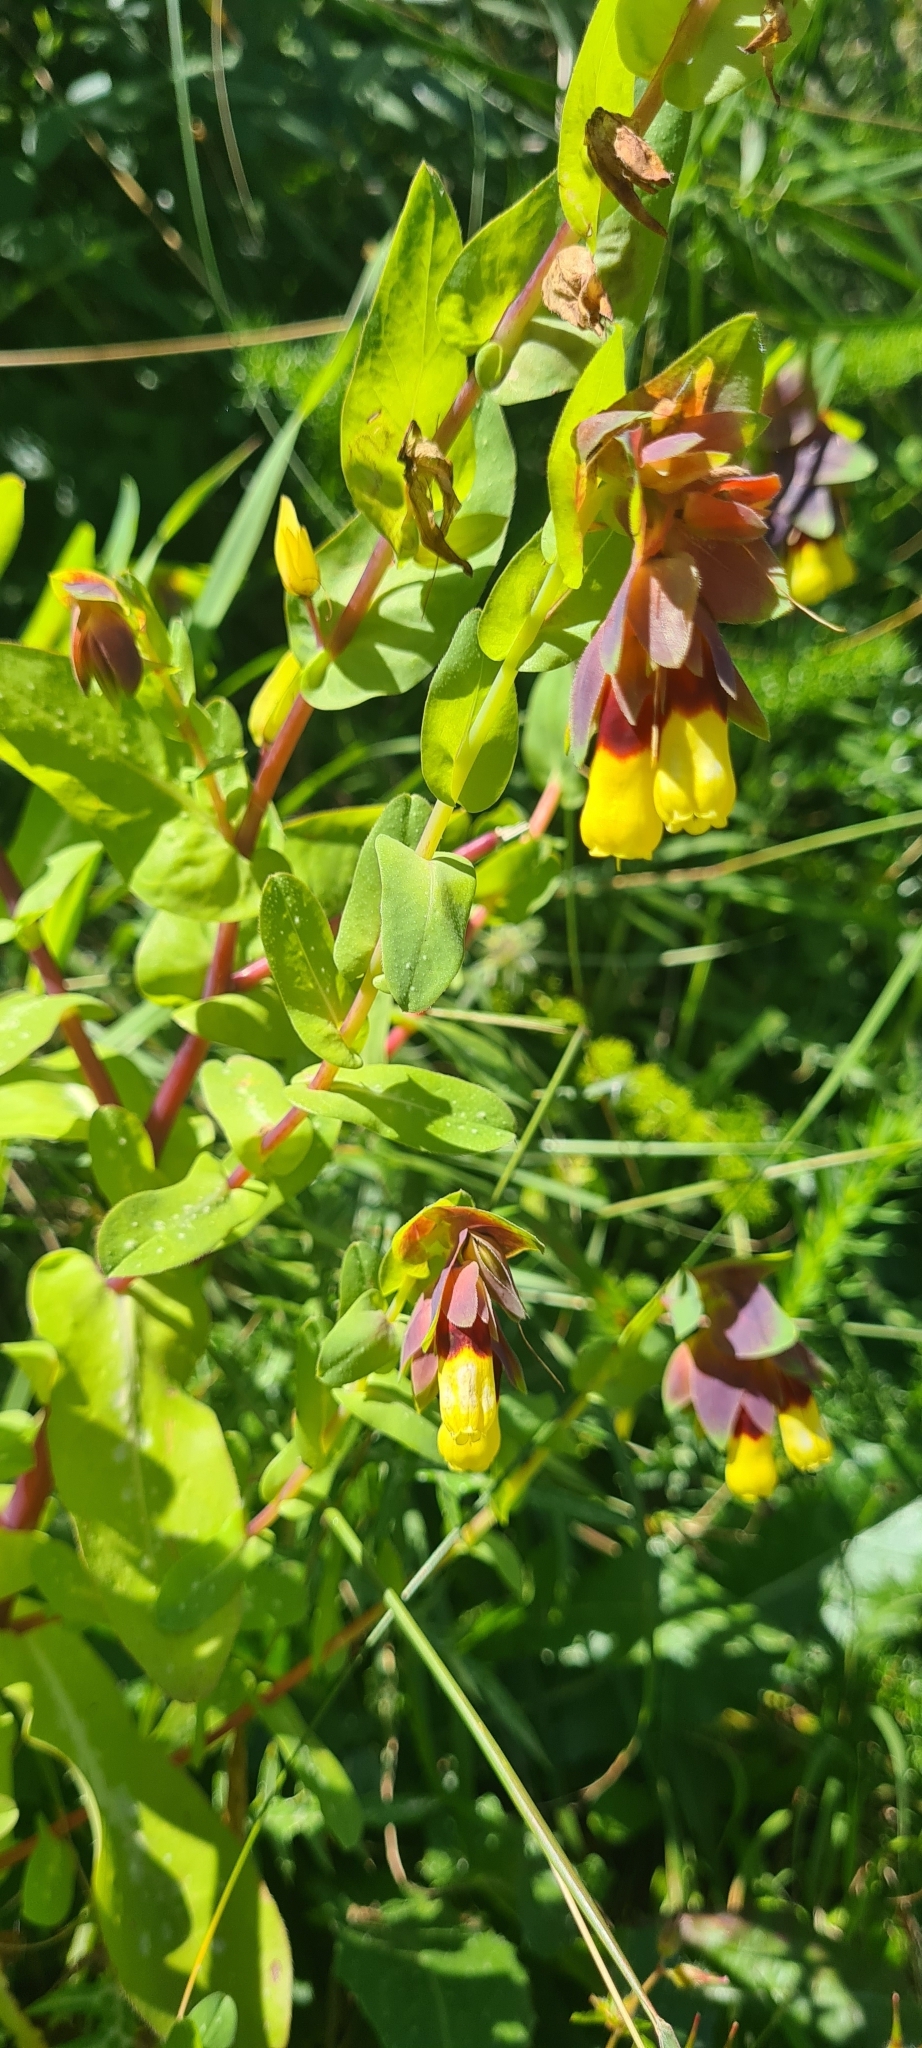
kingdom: Plantae
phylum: Tracheophyta
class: Magnoliopsida
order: Boraginales
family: Boraginaceae
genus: Cerinthe
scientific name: Cerinthe major
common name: Greater honeywort
